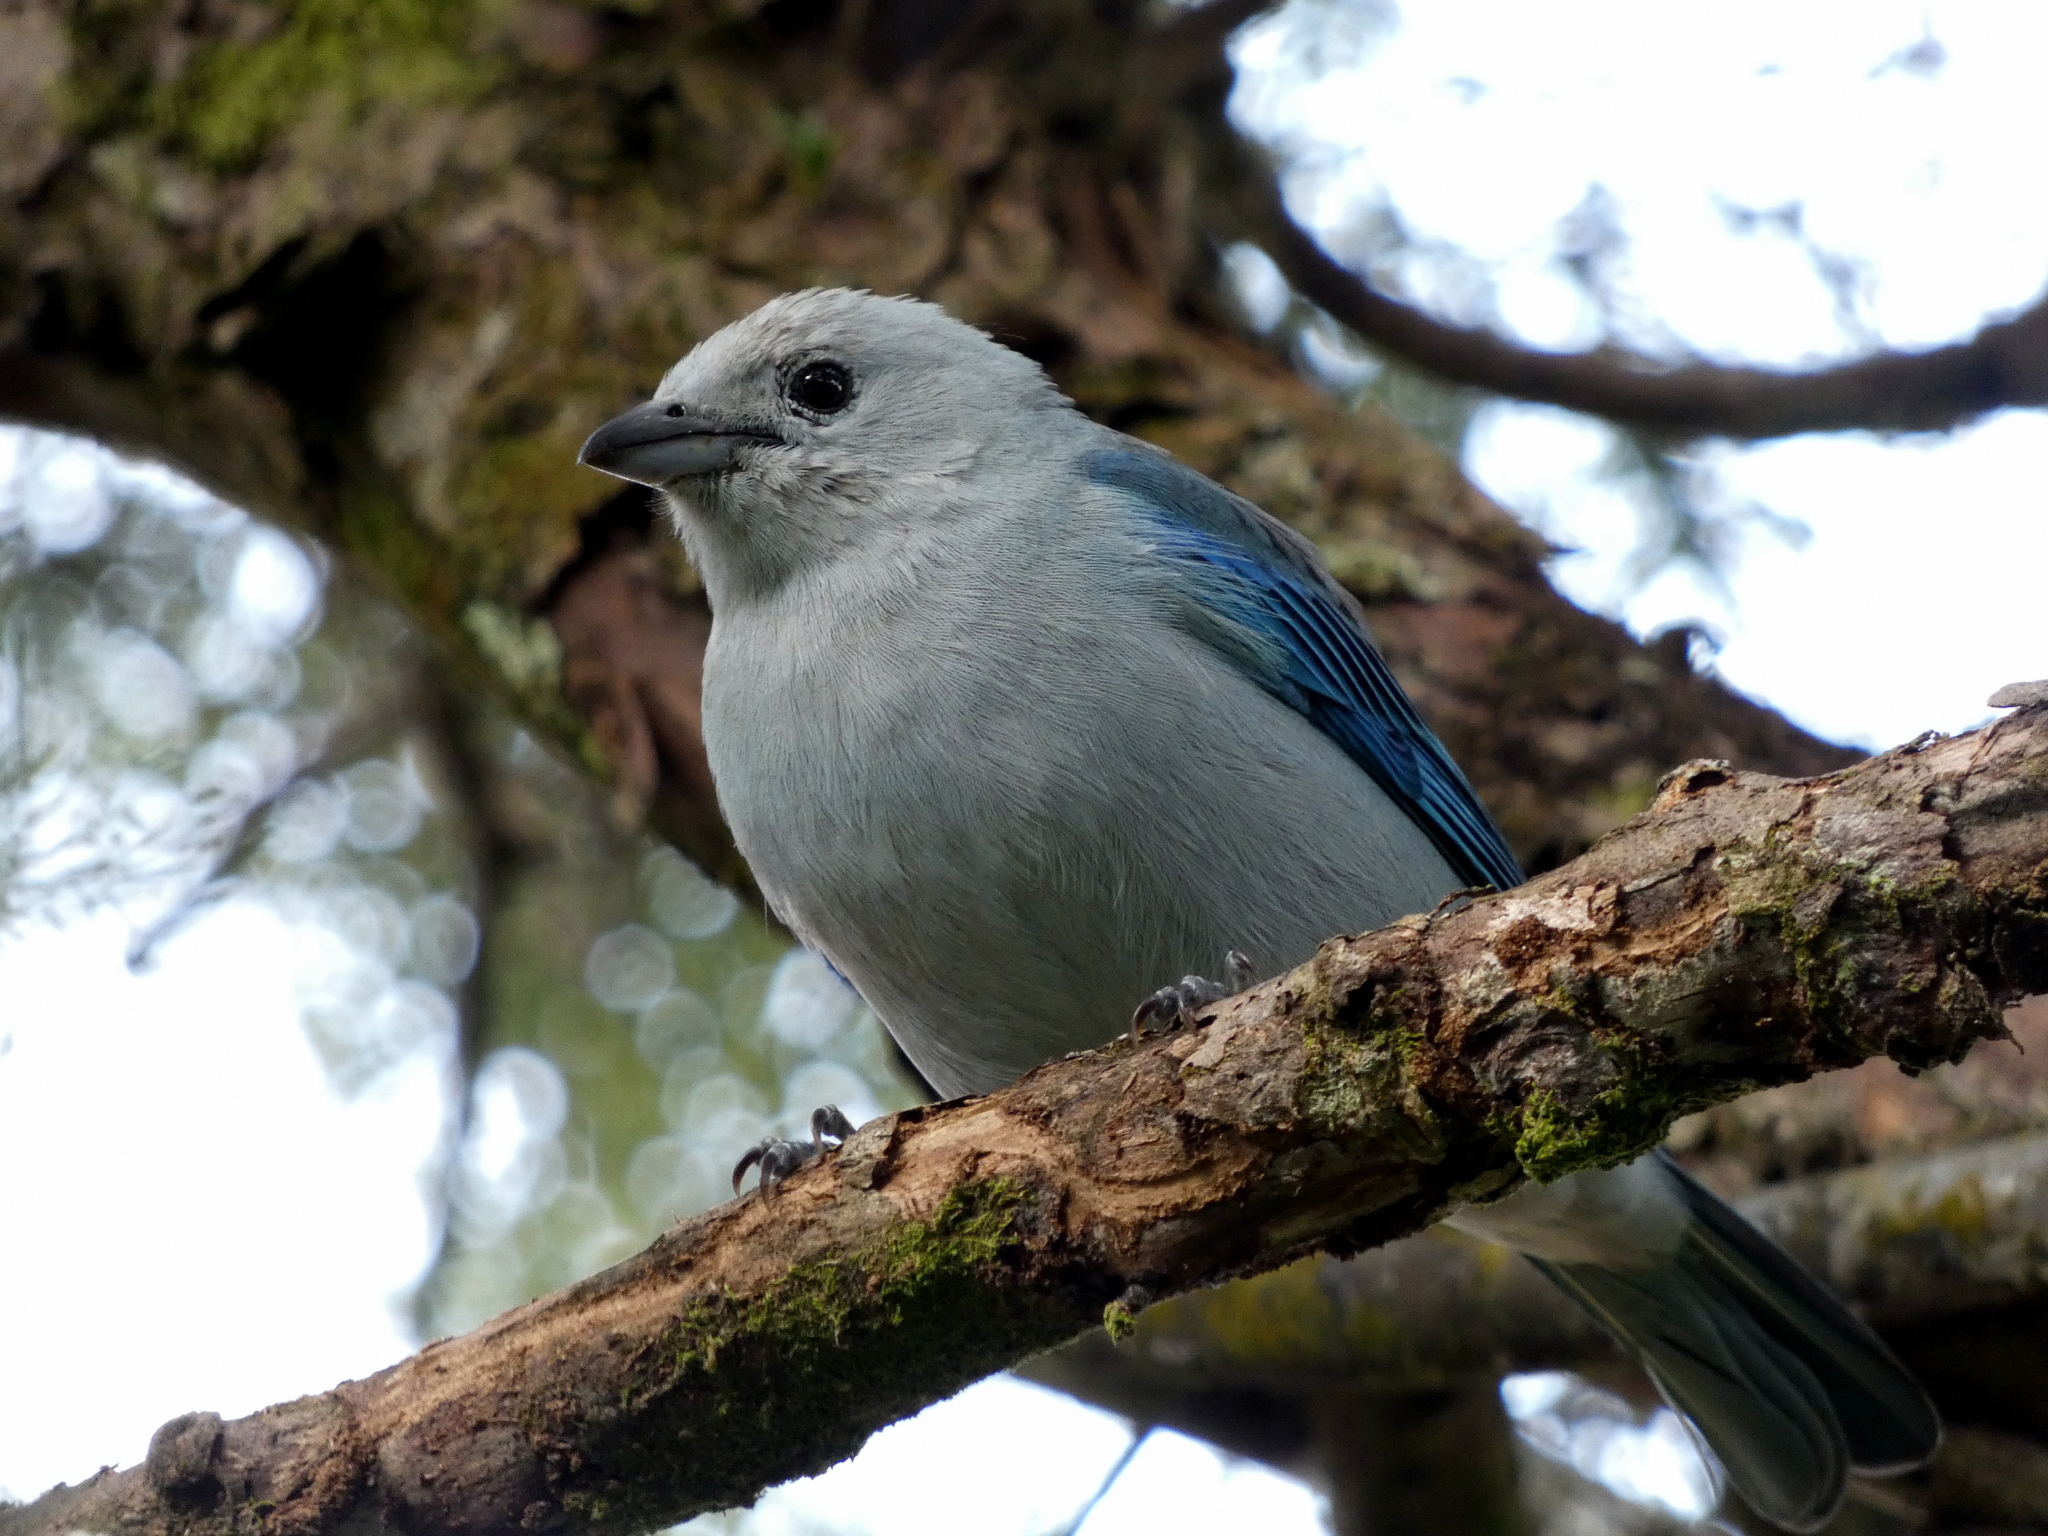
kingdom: Animalia
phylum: Chordata
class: Aves
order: Passeriformes
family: Thraupidae
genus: Thraupis
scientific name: Thraupis episcopus
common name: Blue-grey tanager
